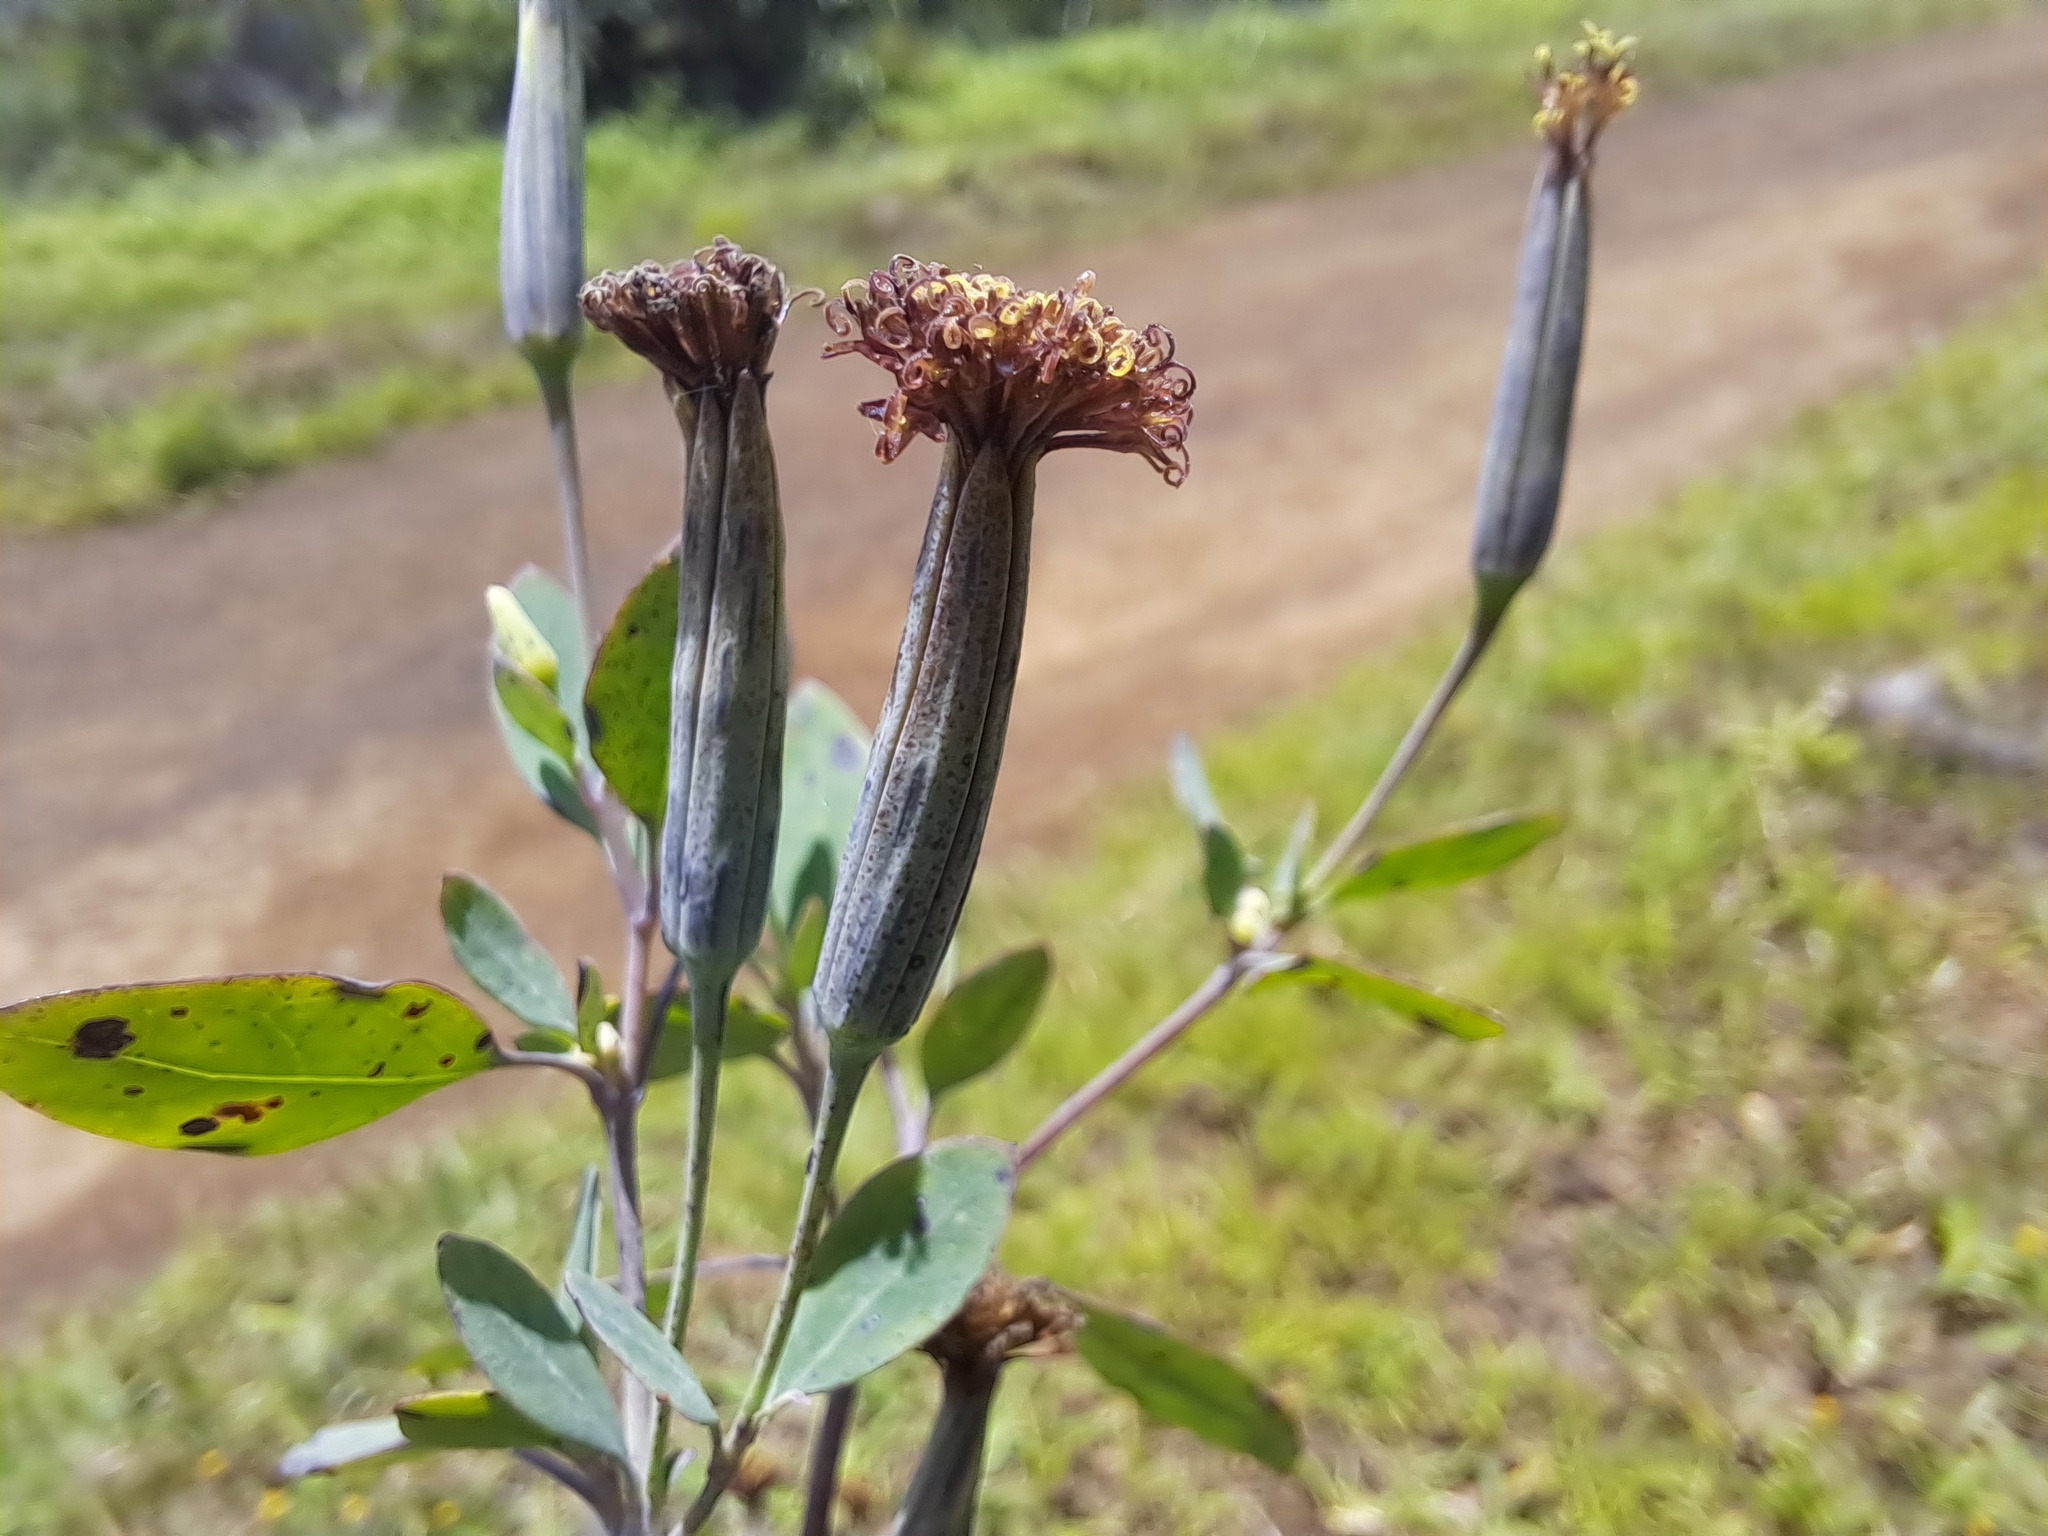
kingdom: Plantae
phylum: Tracheophyta
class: Magnoliopsida
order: Asterales
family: Asteraceae
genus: Porophyllum
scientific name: Porophyllum ruderale
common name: Yerba porosa
